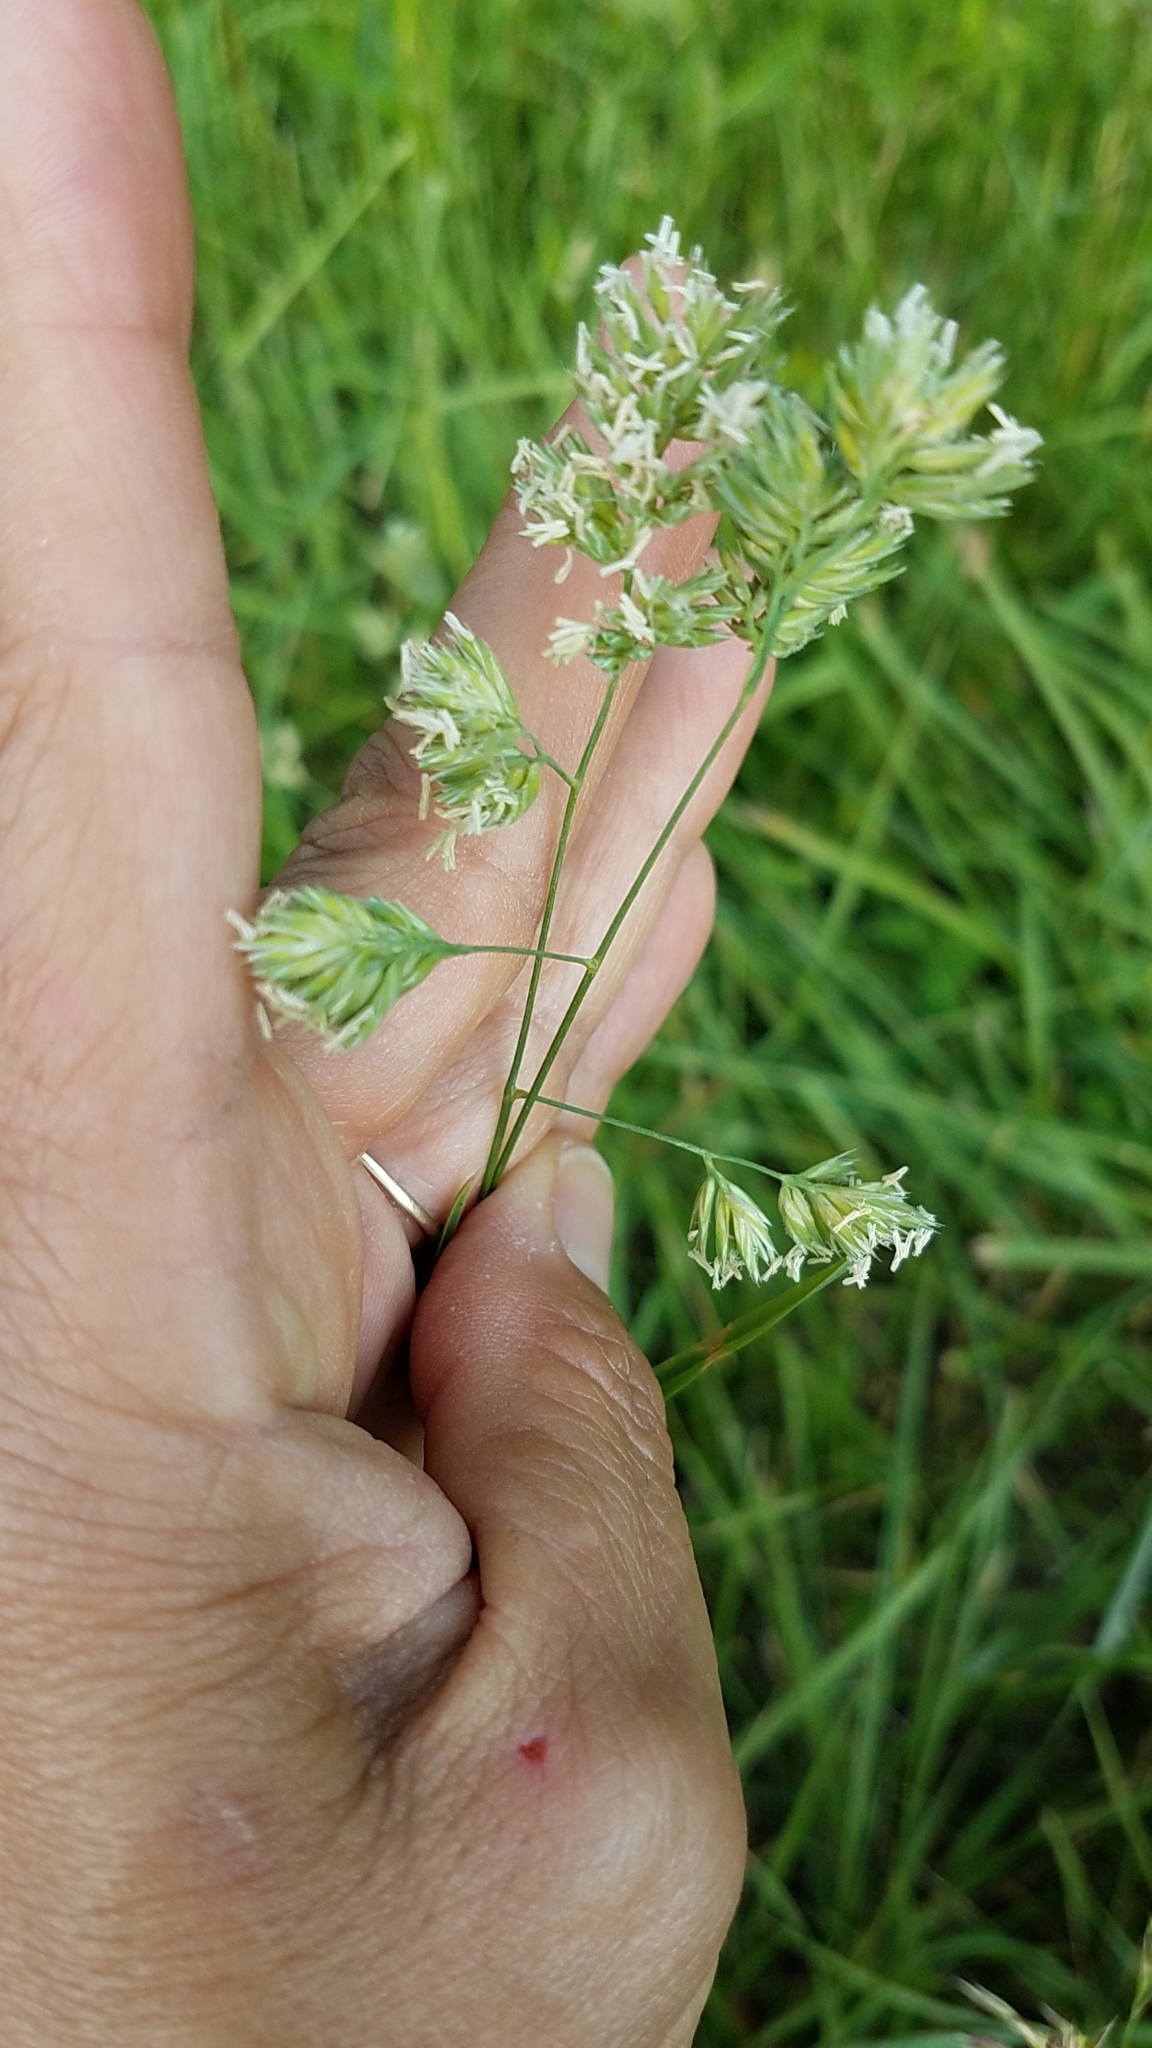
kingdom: Plantae
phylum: Tracheophyta
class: Liliopsida
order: Poales
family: Poaceae
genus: Dactylis
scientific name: Dactylis glomerata
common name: Orchardgrass
